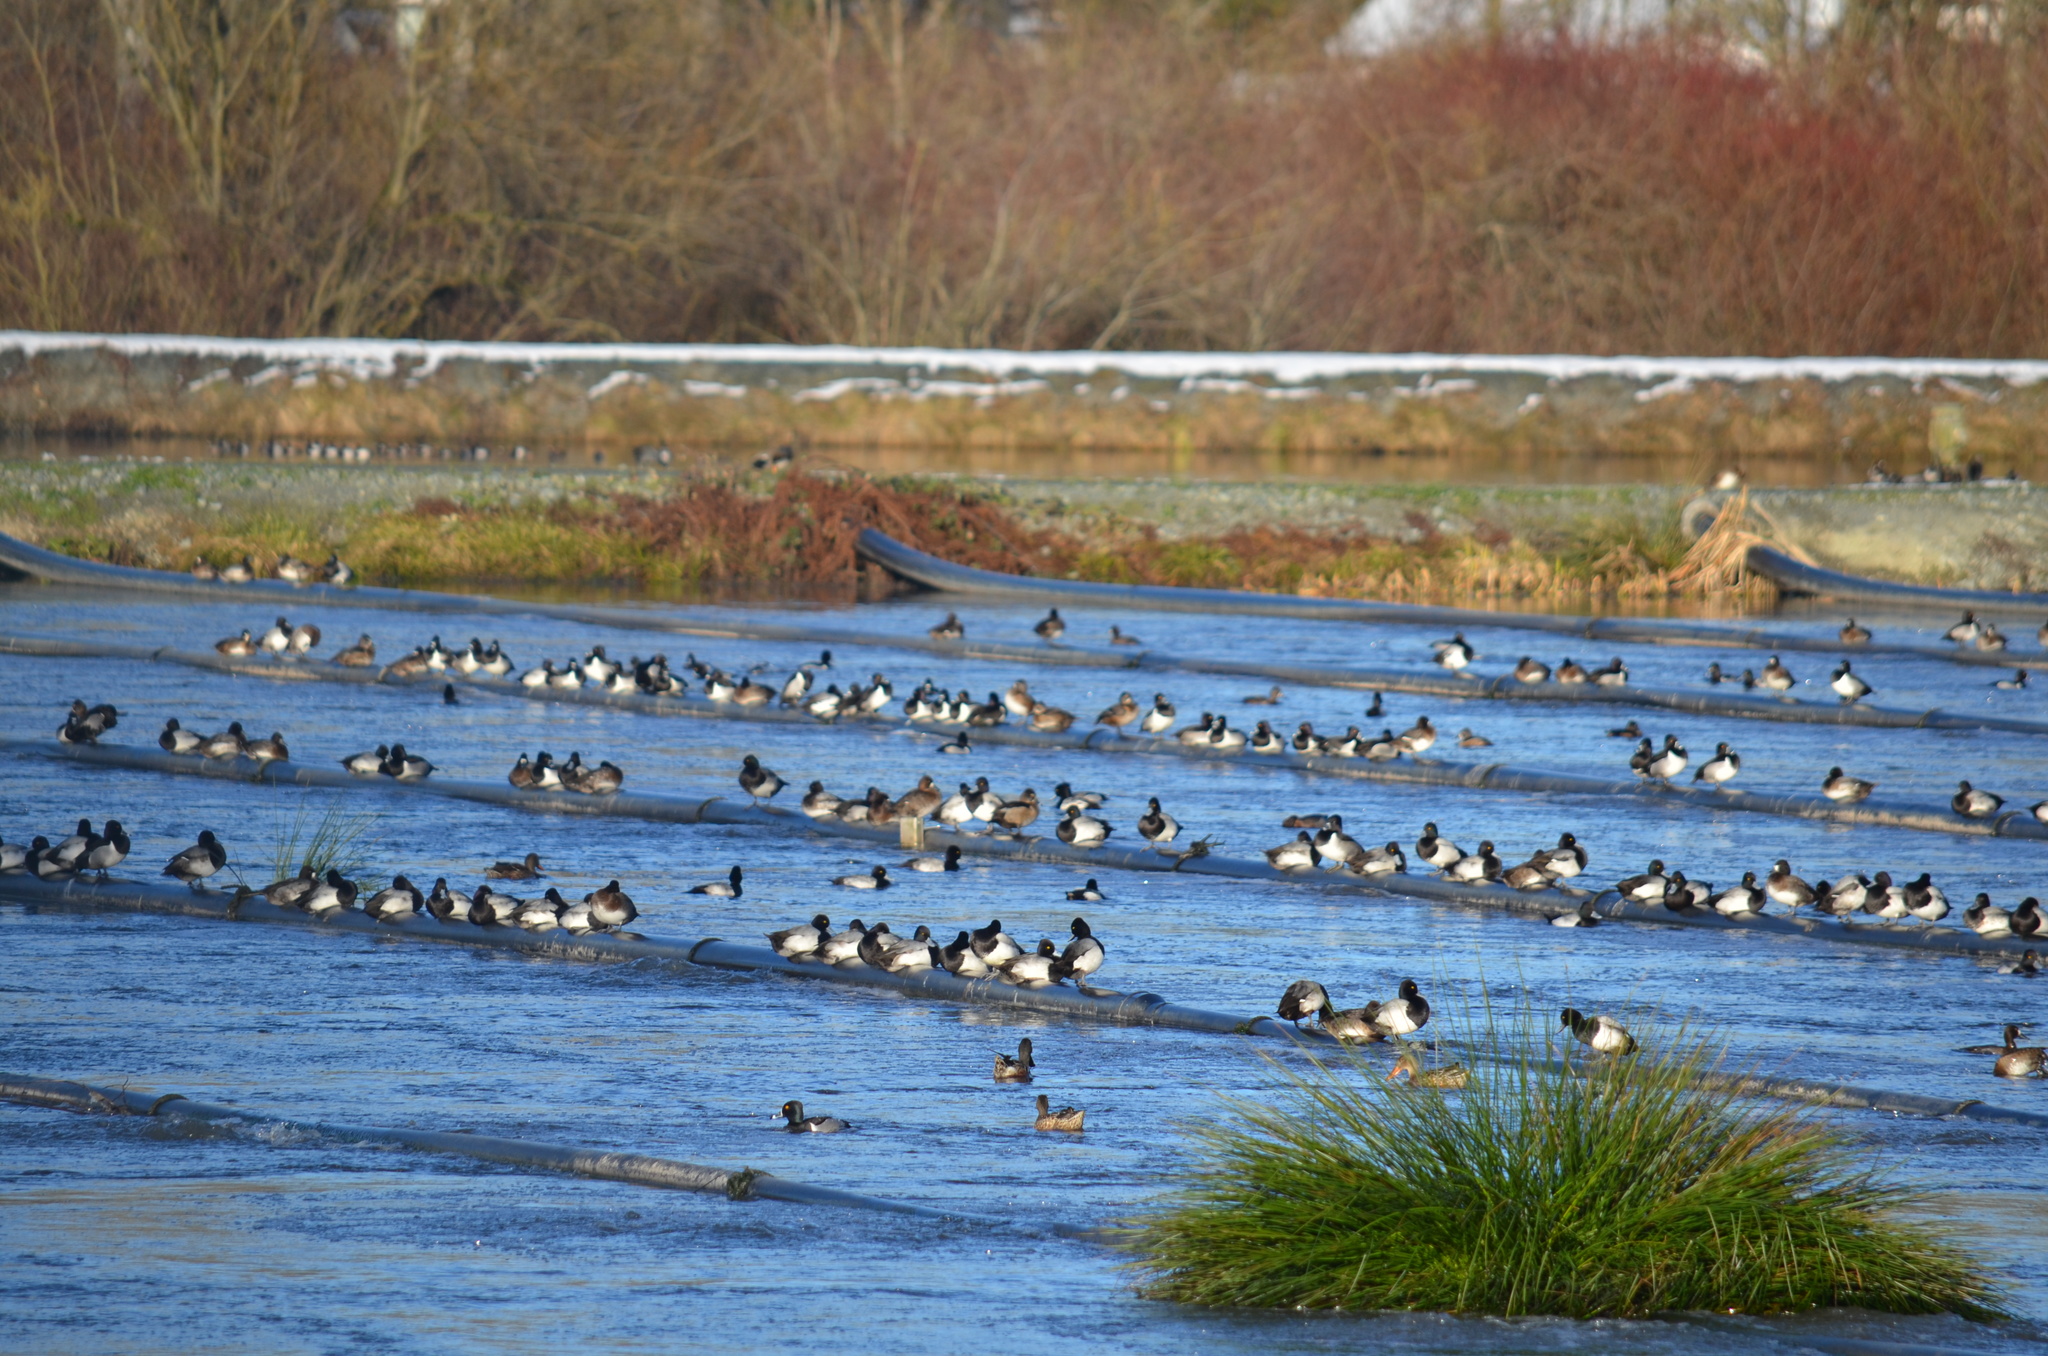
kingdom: Animalia
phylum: Chordata
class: Aves
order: Anseriformes
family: Anatidae
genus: Aythya
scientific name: Aythya affinis
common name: Lesser scaup
